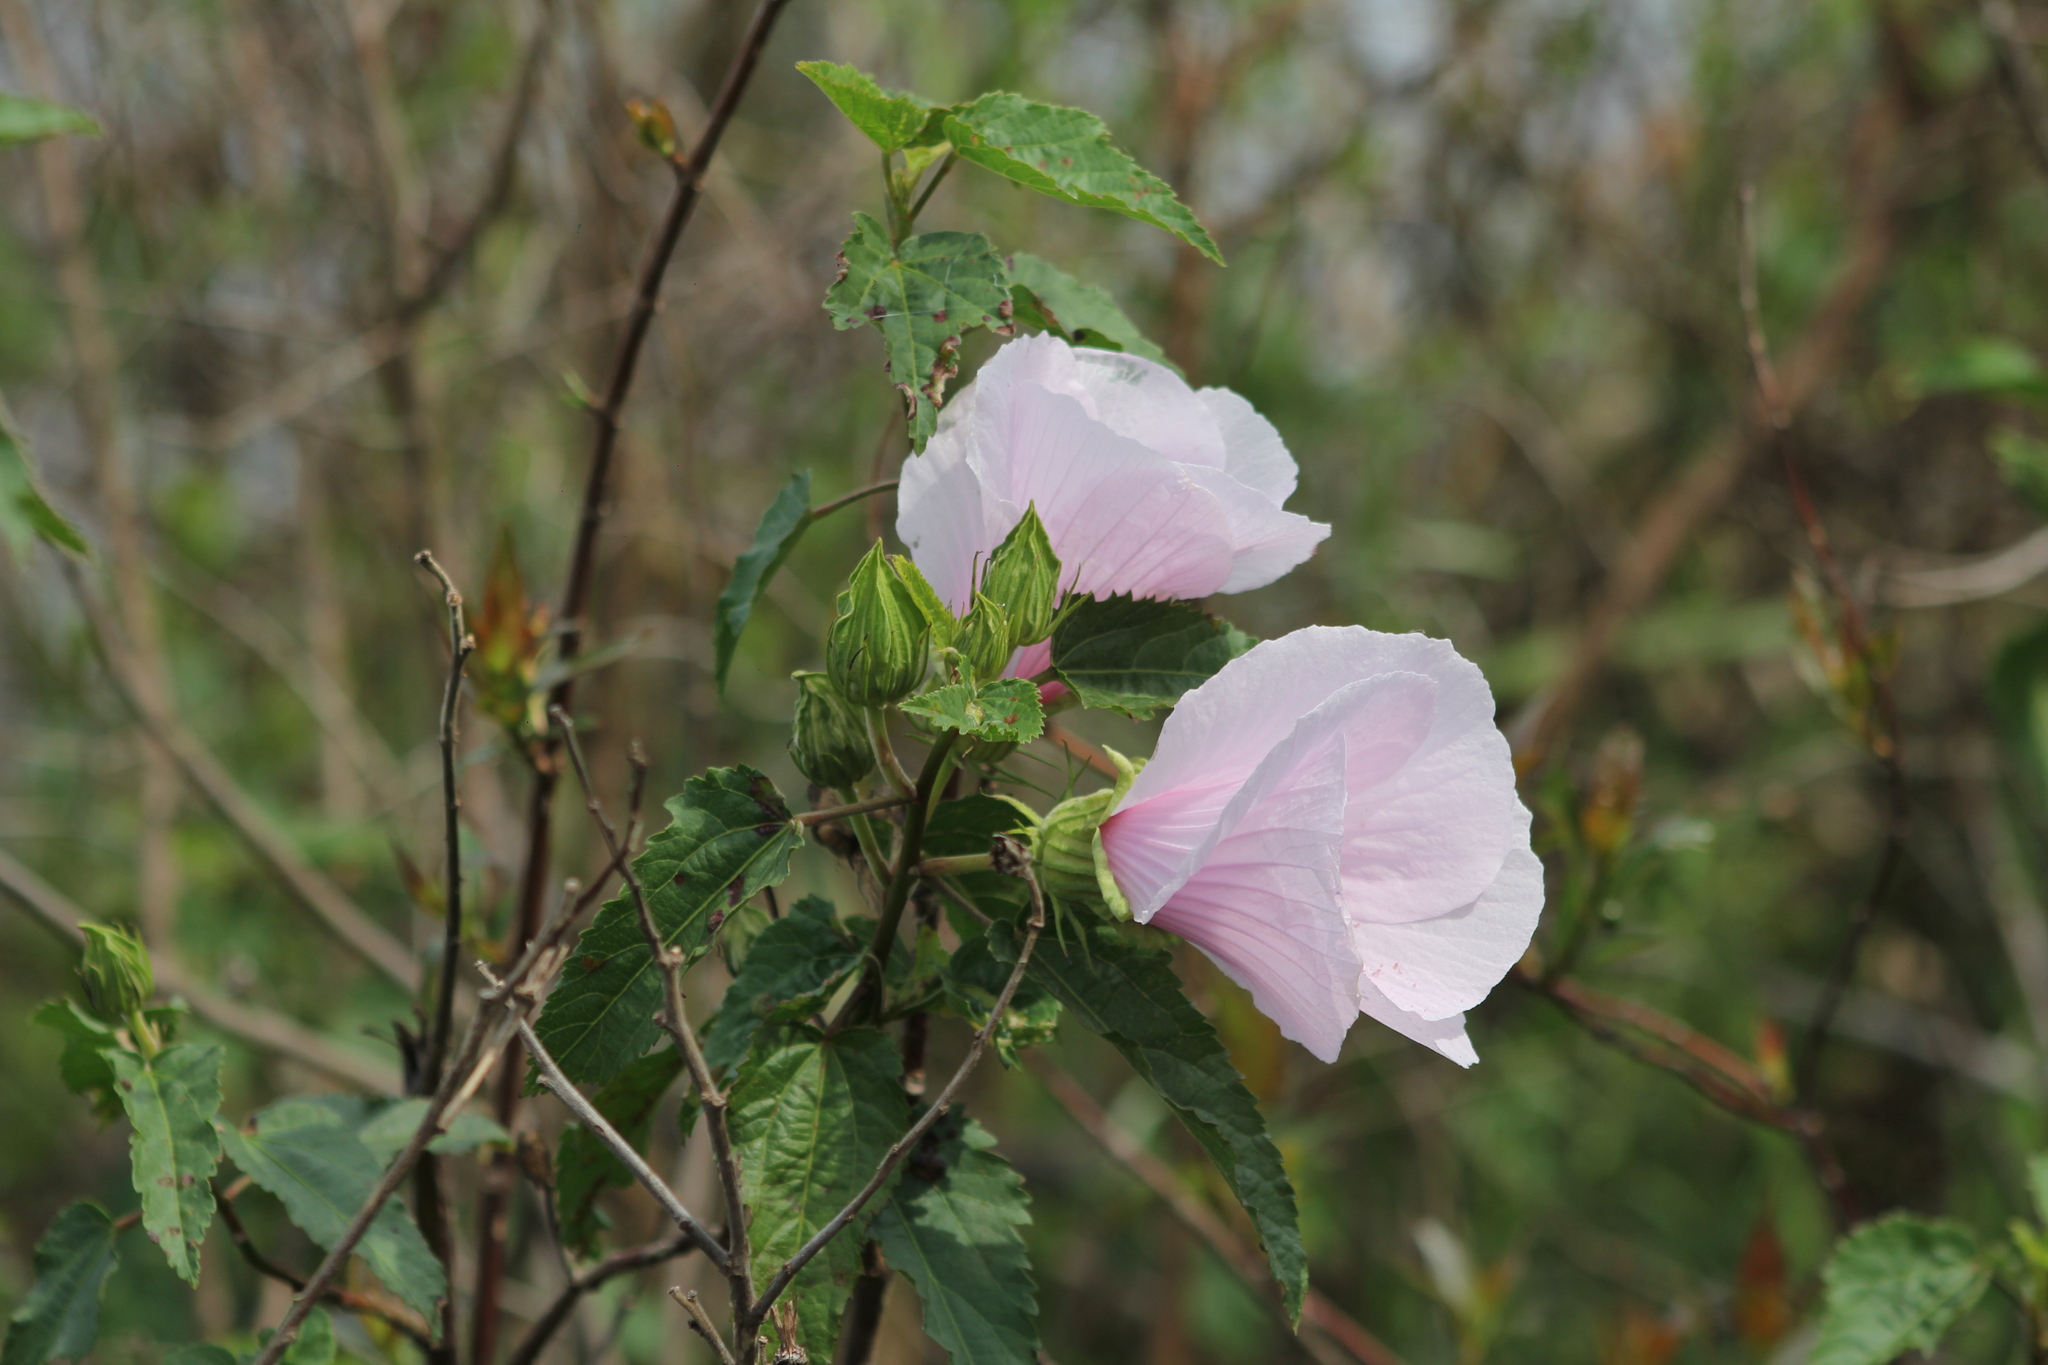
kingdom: Plantae
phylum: Tracheophyta
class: Magnoliopsida
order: Malvales
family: Malvaceae
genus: Hibiscus
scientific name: Hibiscus striatus
